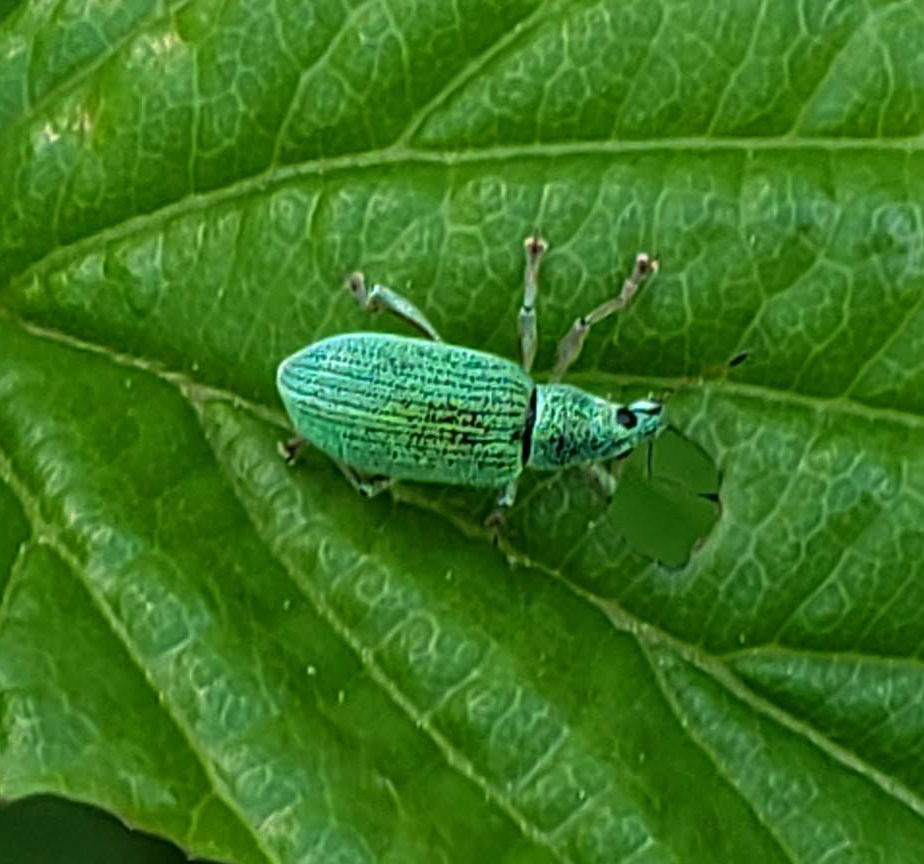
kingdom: Animalia
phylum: Arthropoda
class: Insecta
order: Coleoptera
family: Curculionidae
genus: Polydrusus
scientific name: Polydrusus formosus
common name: Weevil
